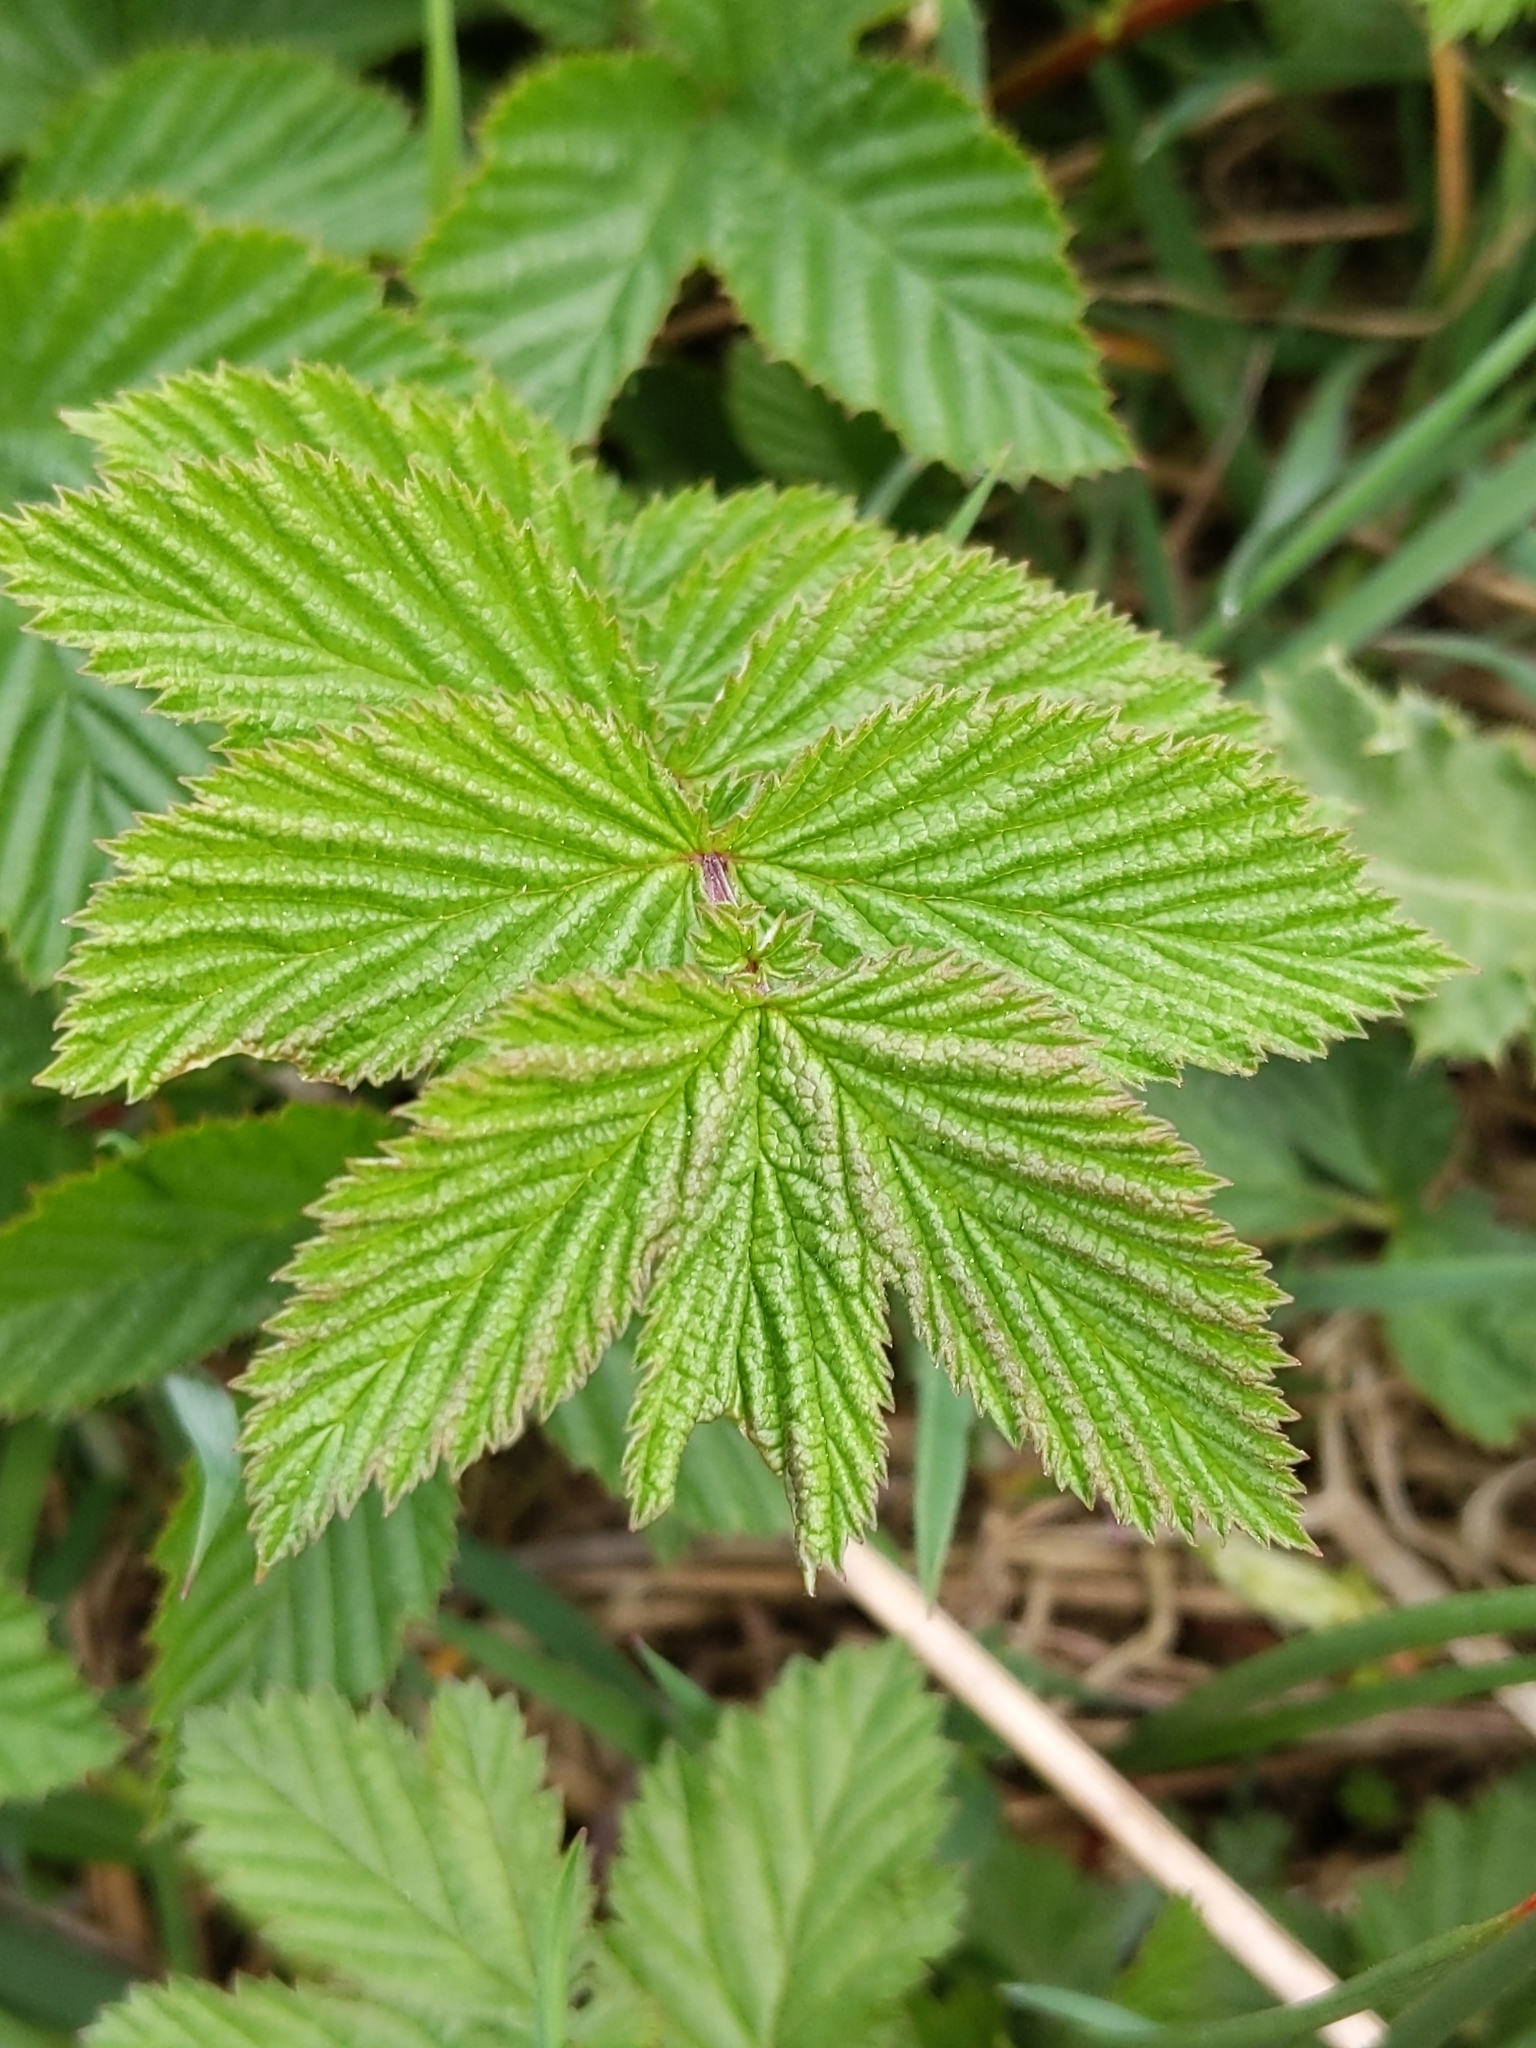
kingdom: Plantae
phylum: Tracheophyta
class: Magnoliopsida
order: Rosales
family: Rosaceae
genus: Filipendula
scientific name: Filipendula ulmaria
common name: Meadowsweet
